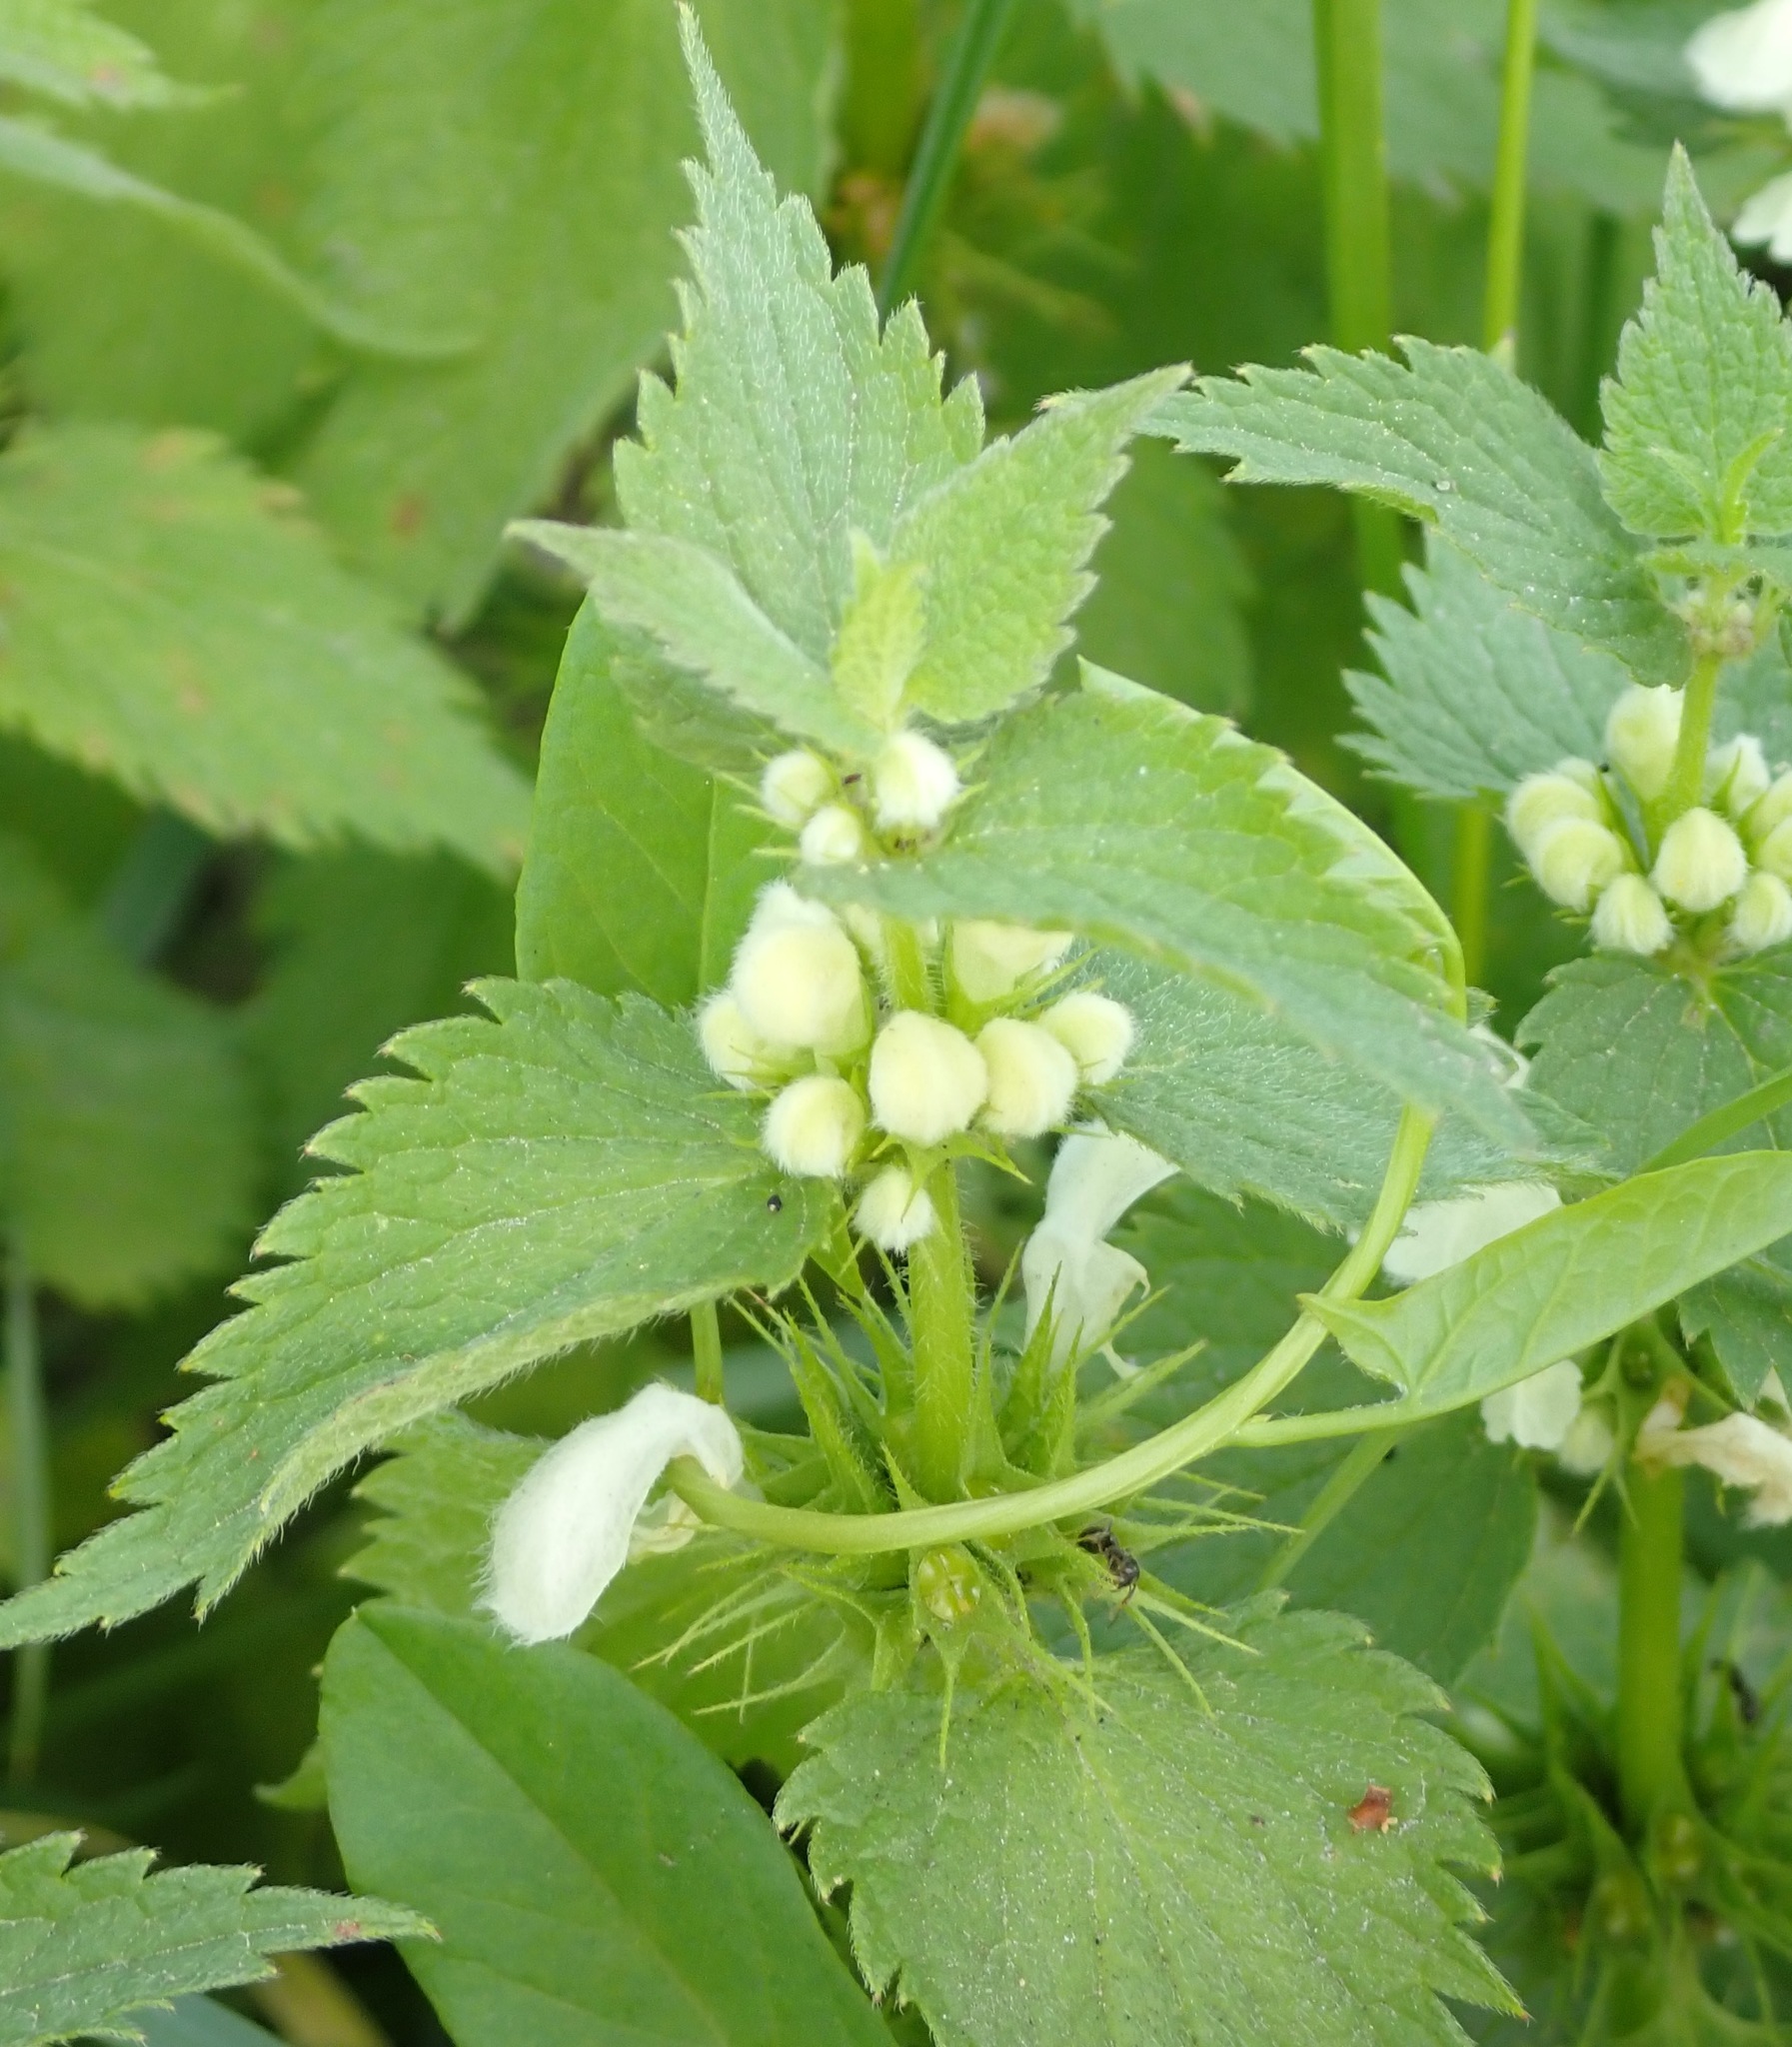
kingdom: Plantae
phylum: Tracheophyta
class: Magnoliopsida
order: Lamiales
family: Lamiaceae
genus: Lamium
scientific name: Lamium album
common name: White dead-nettle
